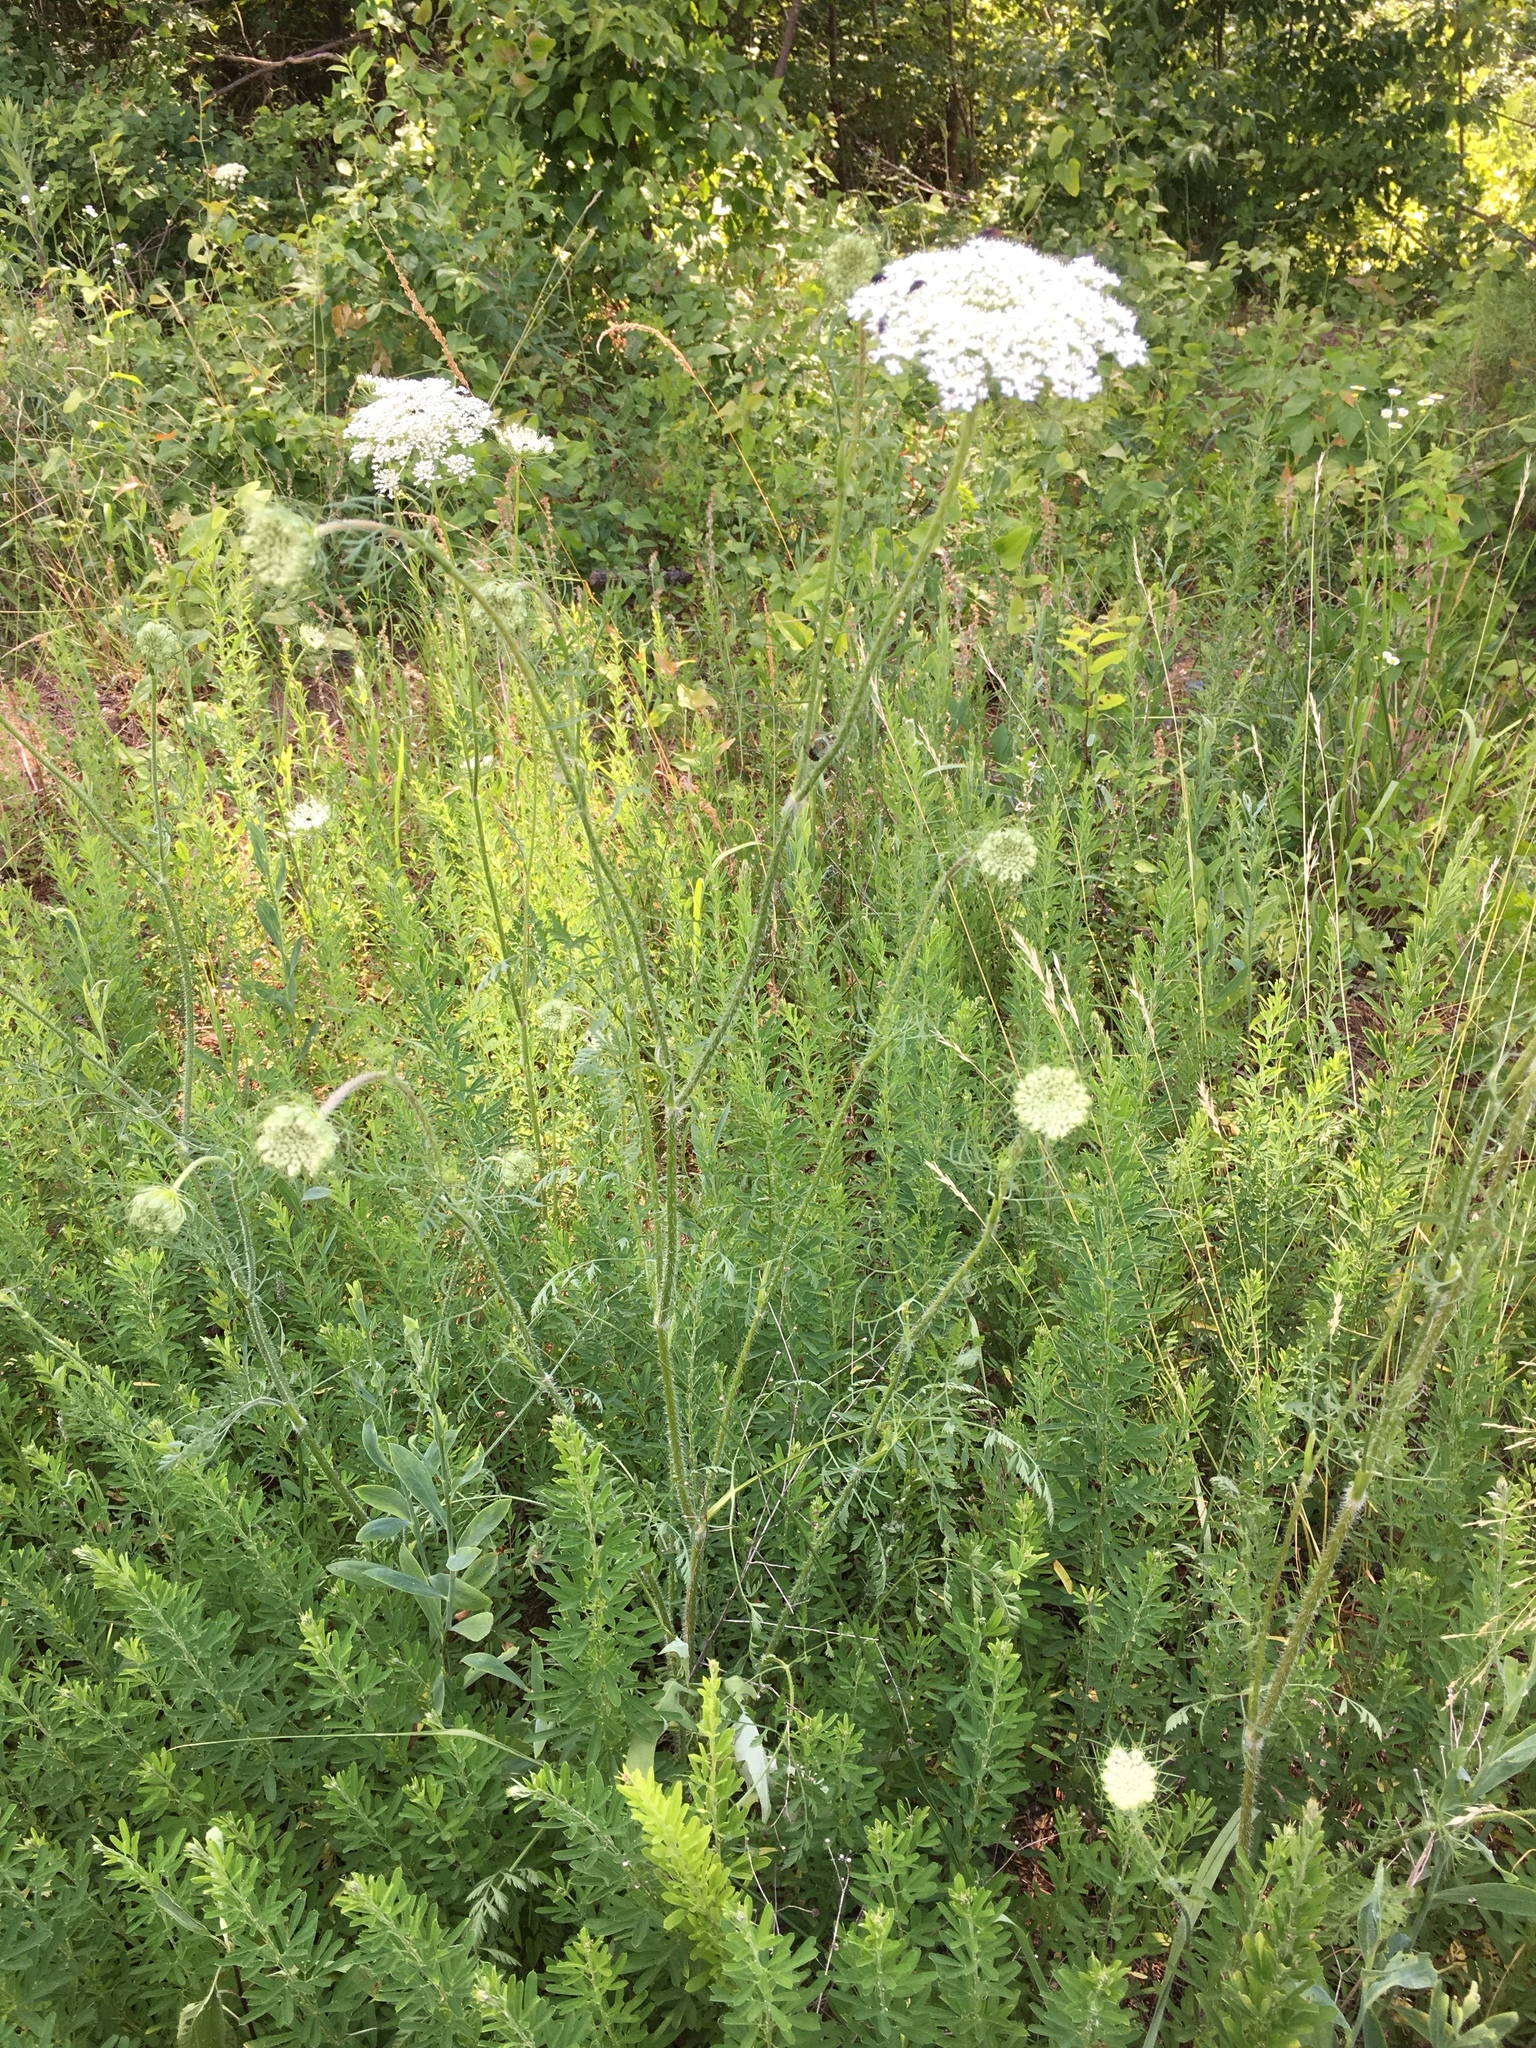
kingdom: Plantae
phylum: Tracheophyta
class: Magnoliopsida
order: Apiales
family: Apiaceae
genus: Daucus
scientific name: Daucus carota
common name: Wild carrot
